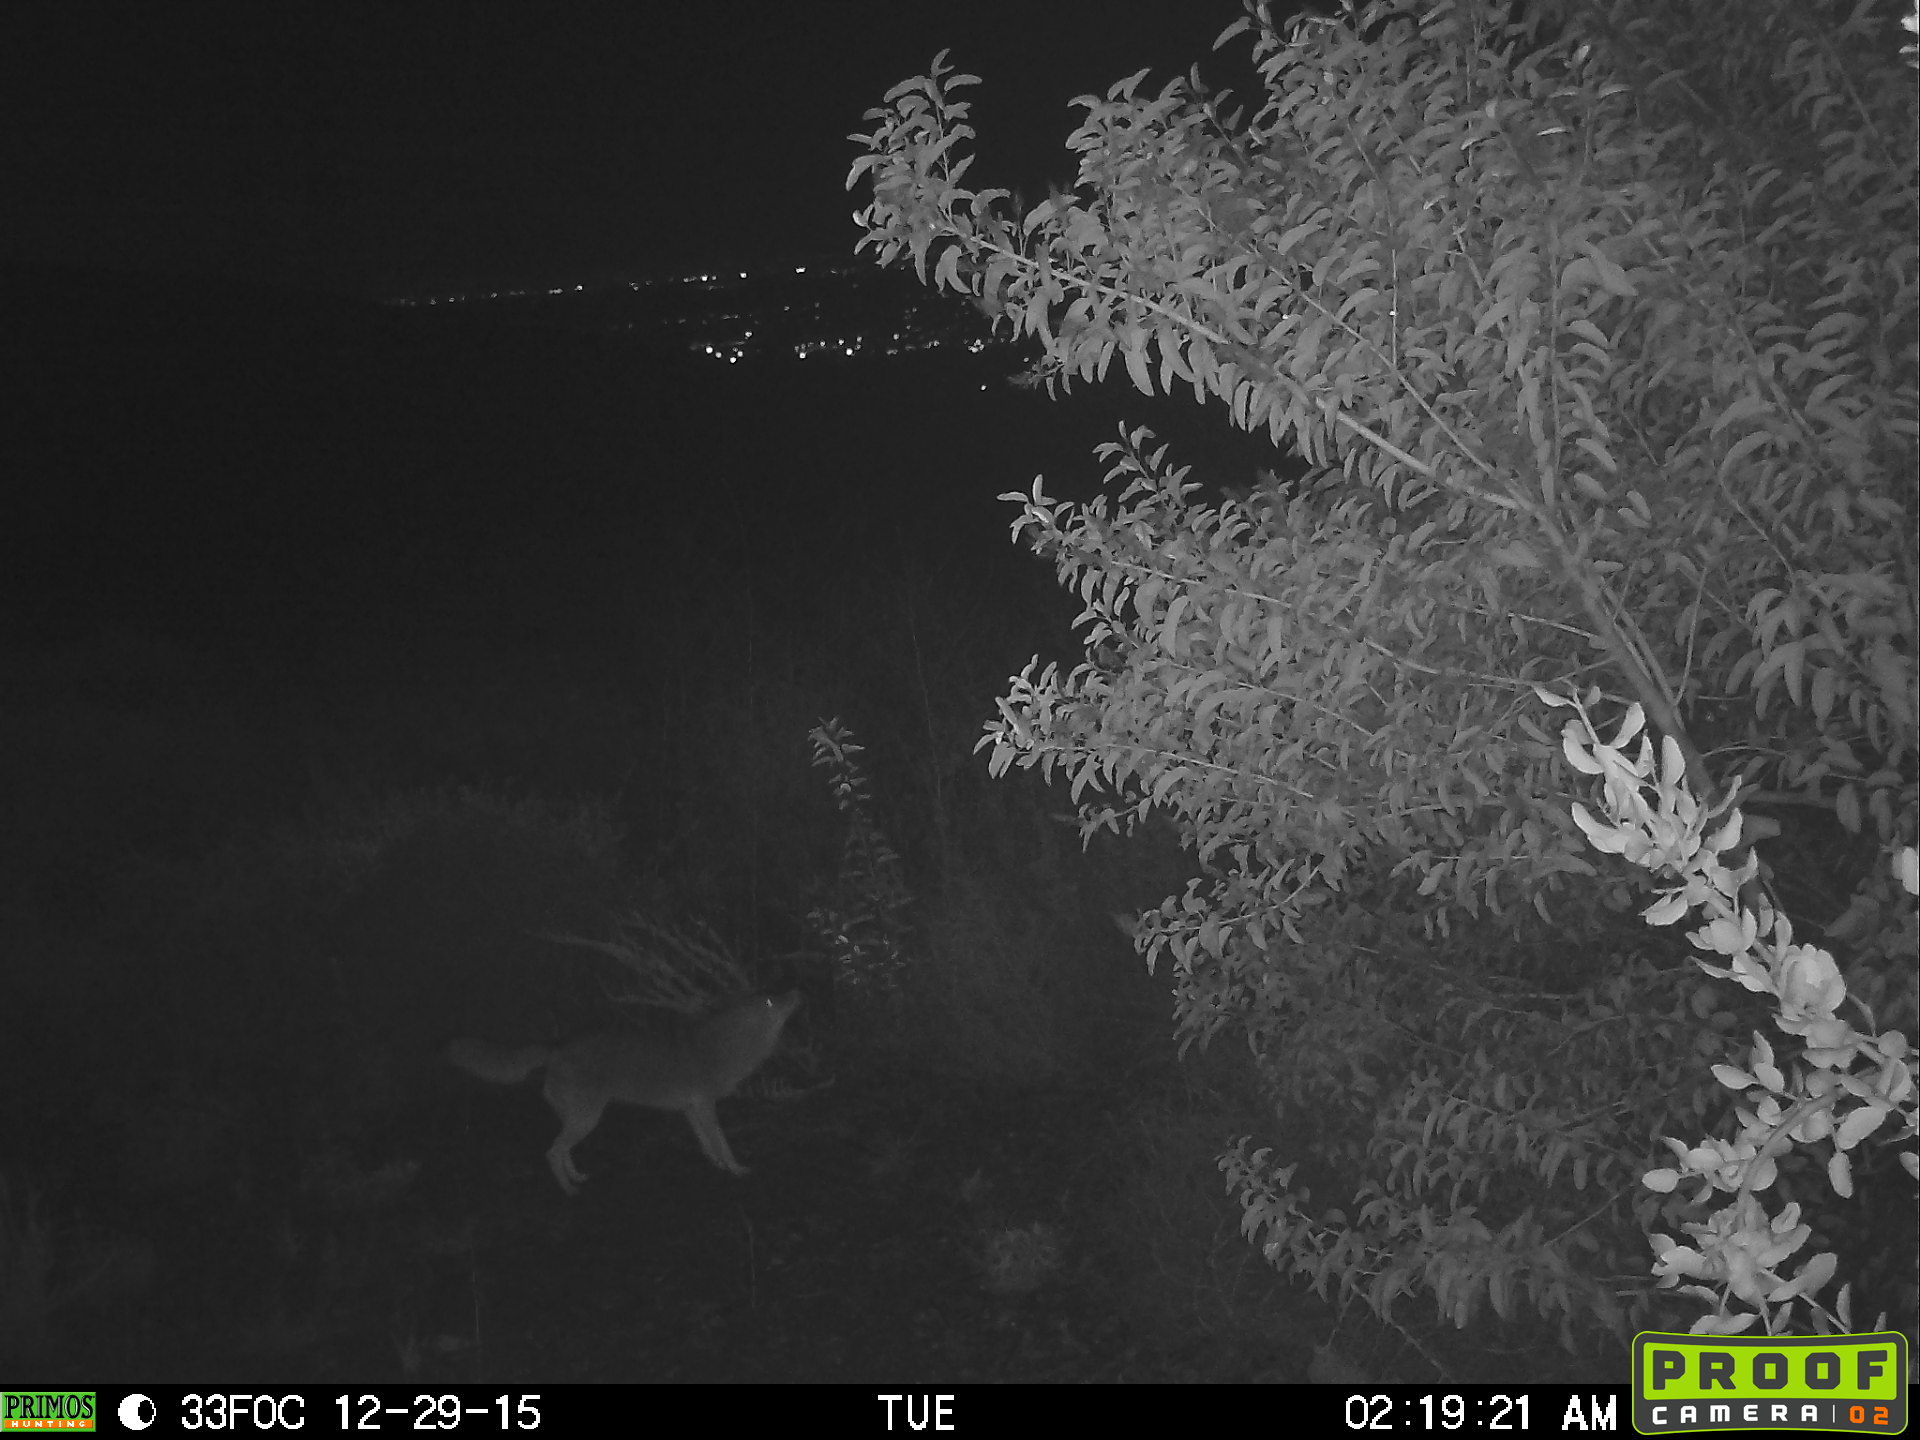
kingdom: Animalia
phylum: Chordata
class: Mammalia
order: Carnivora
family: Canidae
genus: Canis
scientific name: Canis latrans
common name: Coyote
